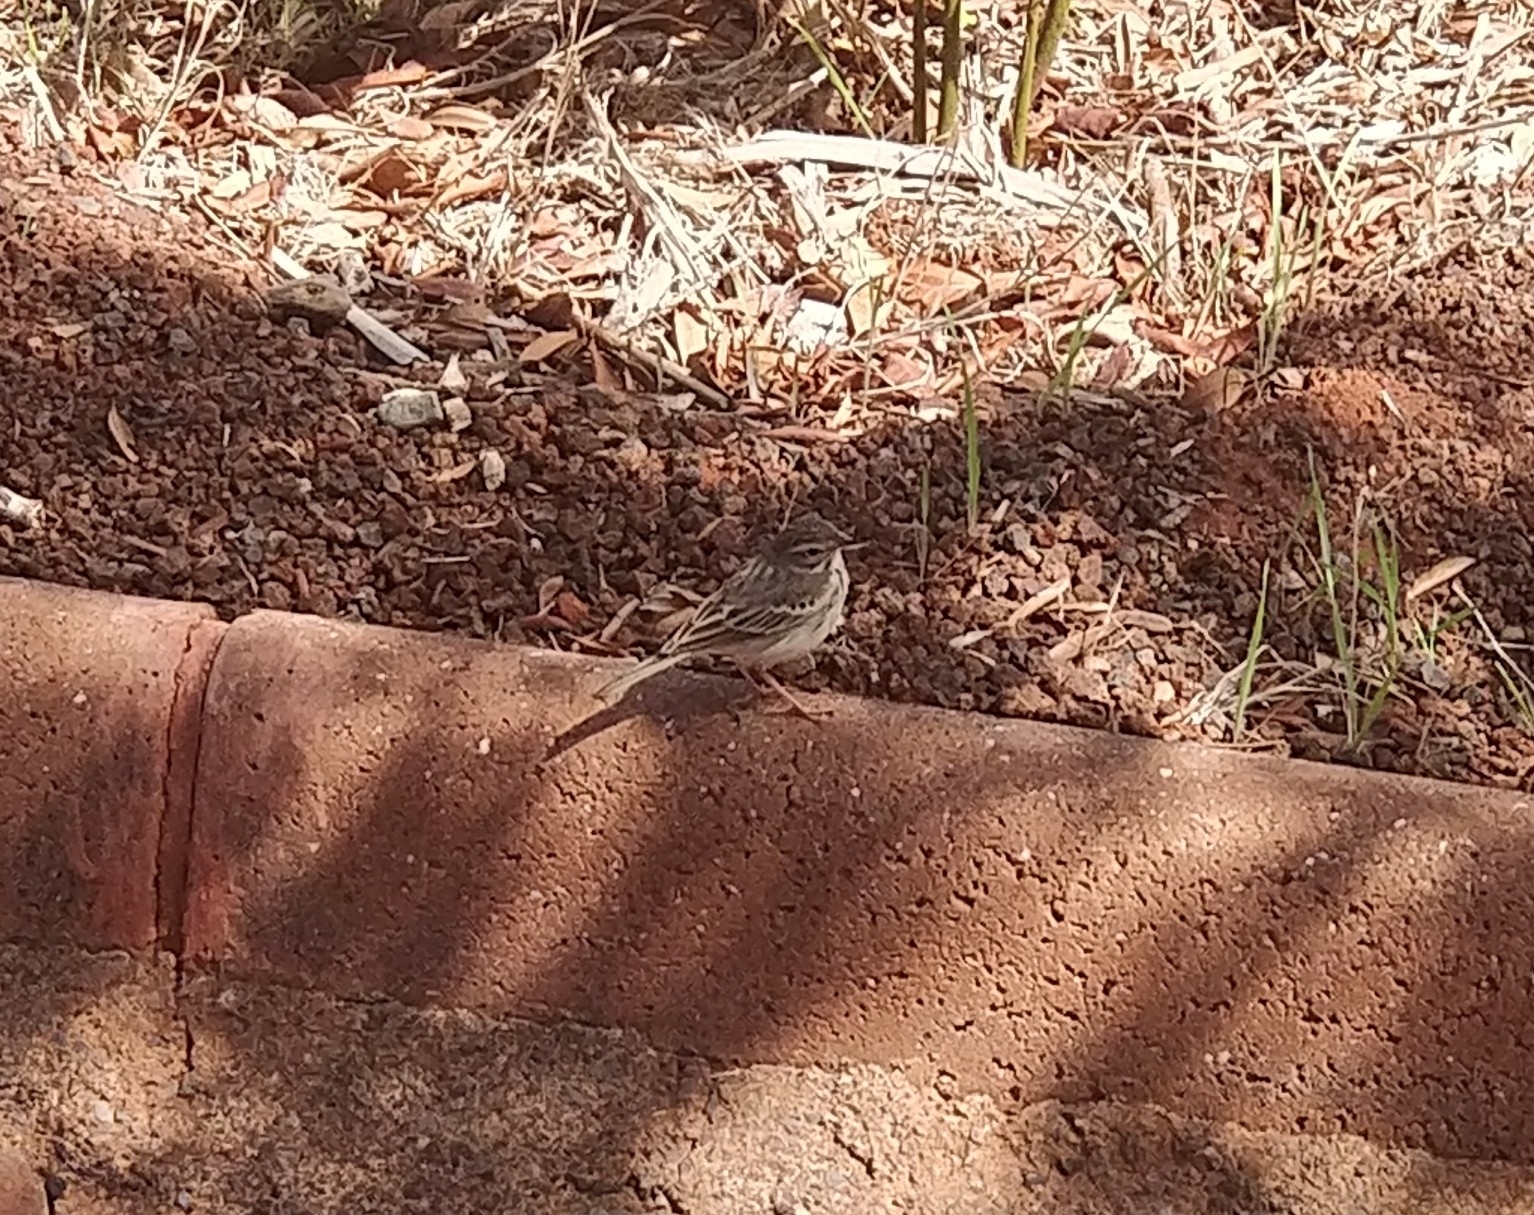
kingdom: Animalia
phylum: Chordata
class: Aves
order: Passeriformes
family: Motacillidae
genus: Anthus
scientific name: Anthus berthelotii
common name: Berthelot's pipit
